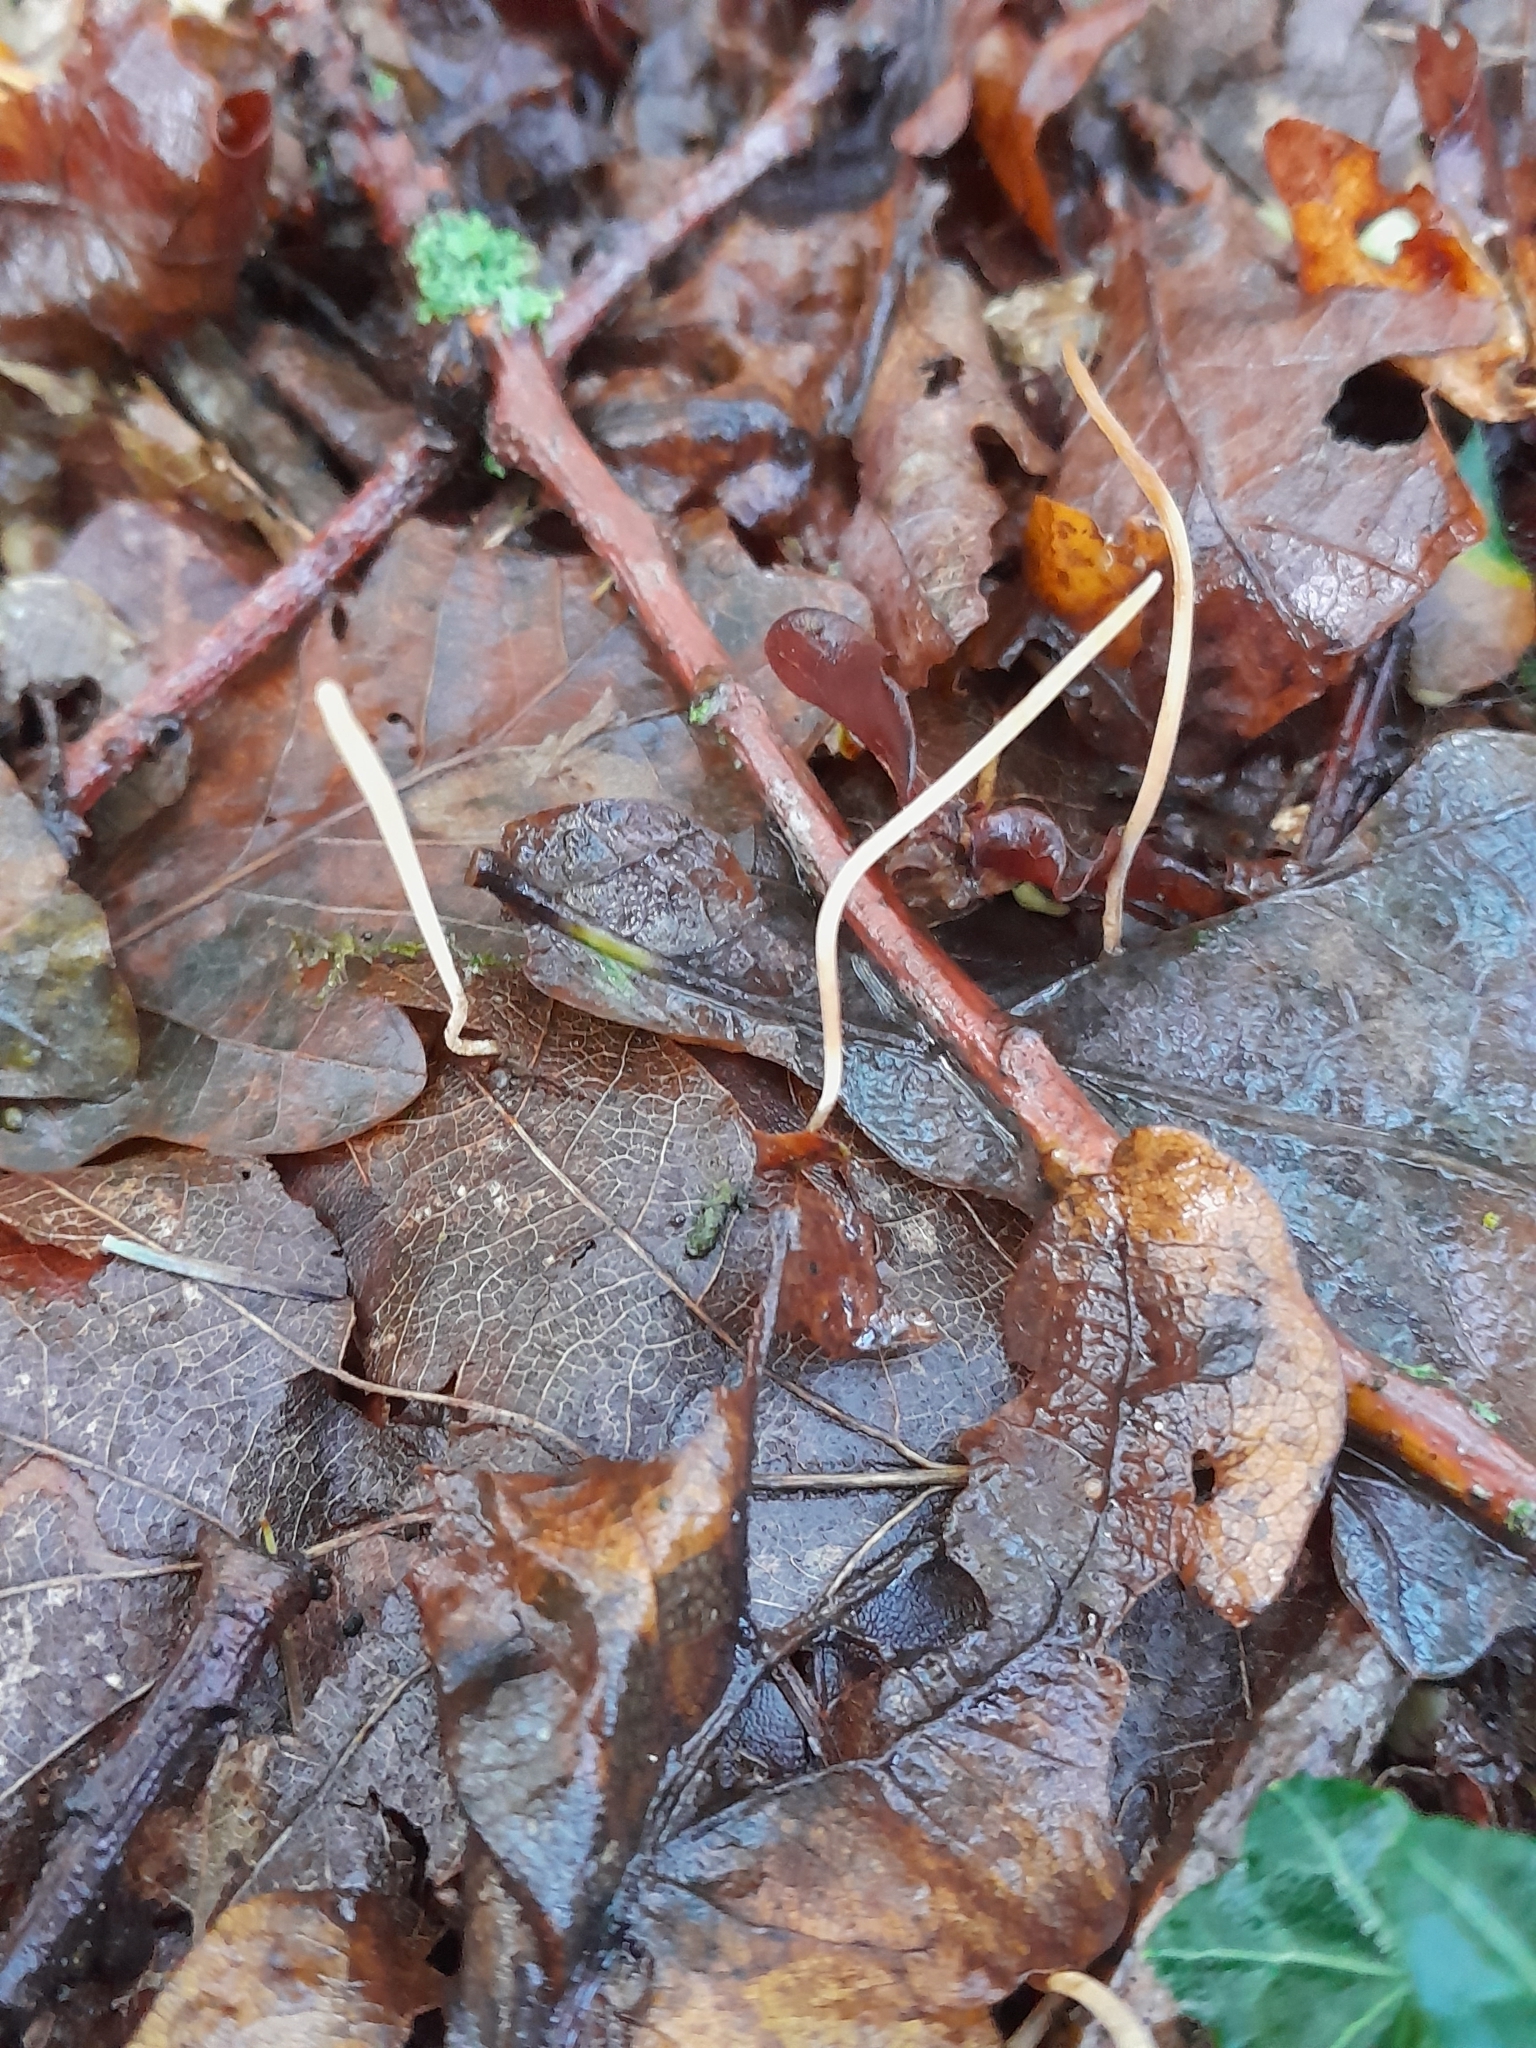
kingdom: Fungi
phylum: Basidiomycota
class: Agaricomycetes
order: Agaricales
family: Typhulaceae
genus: Typhula
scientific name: Typhula juncea
